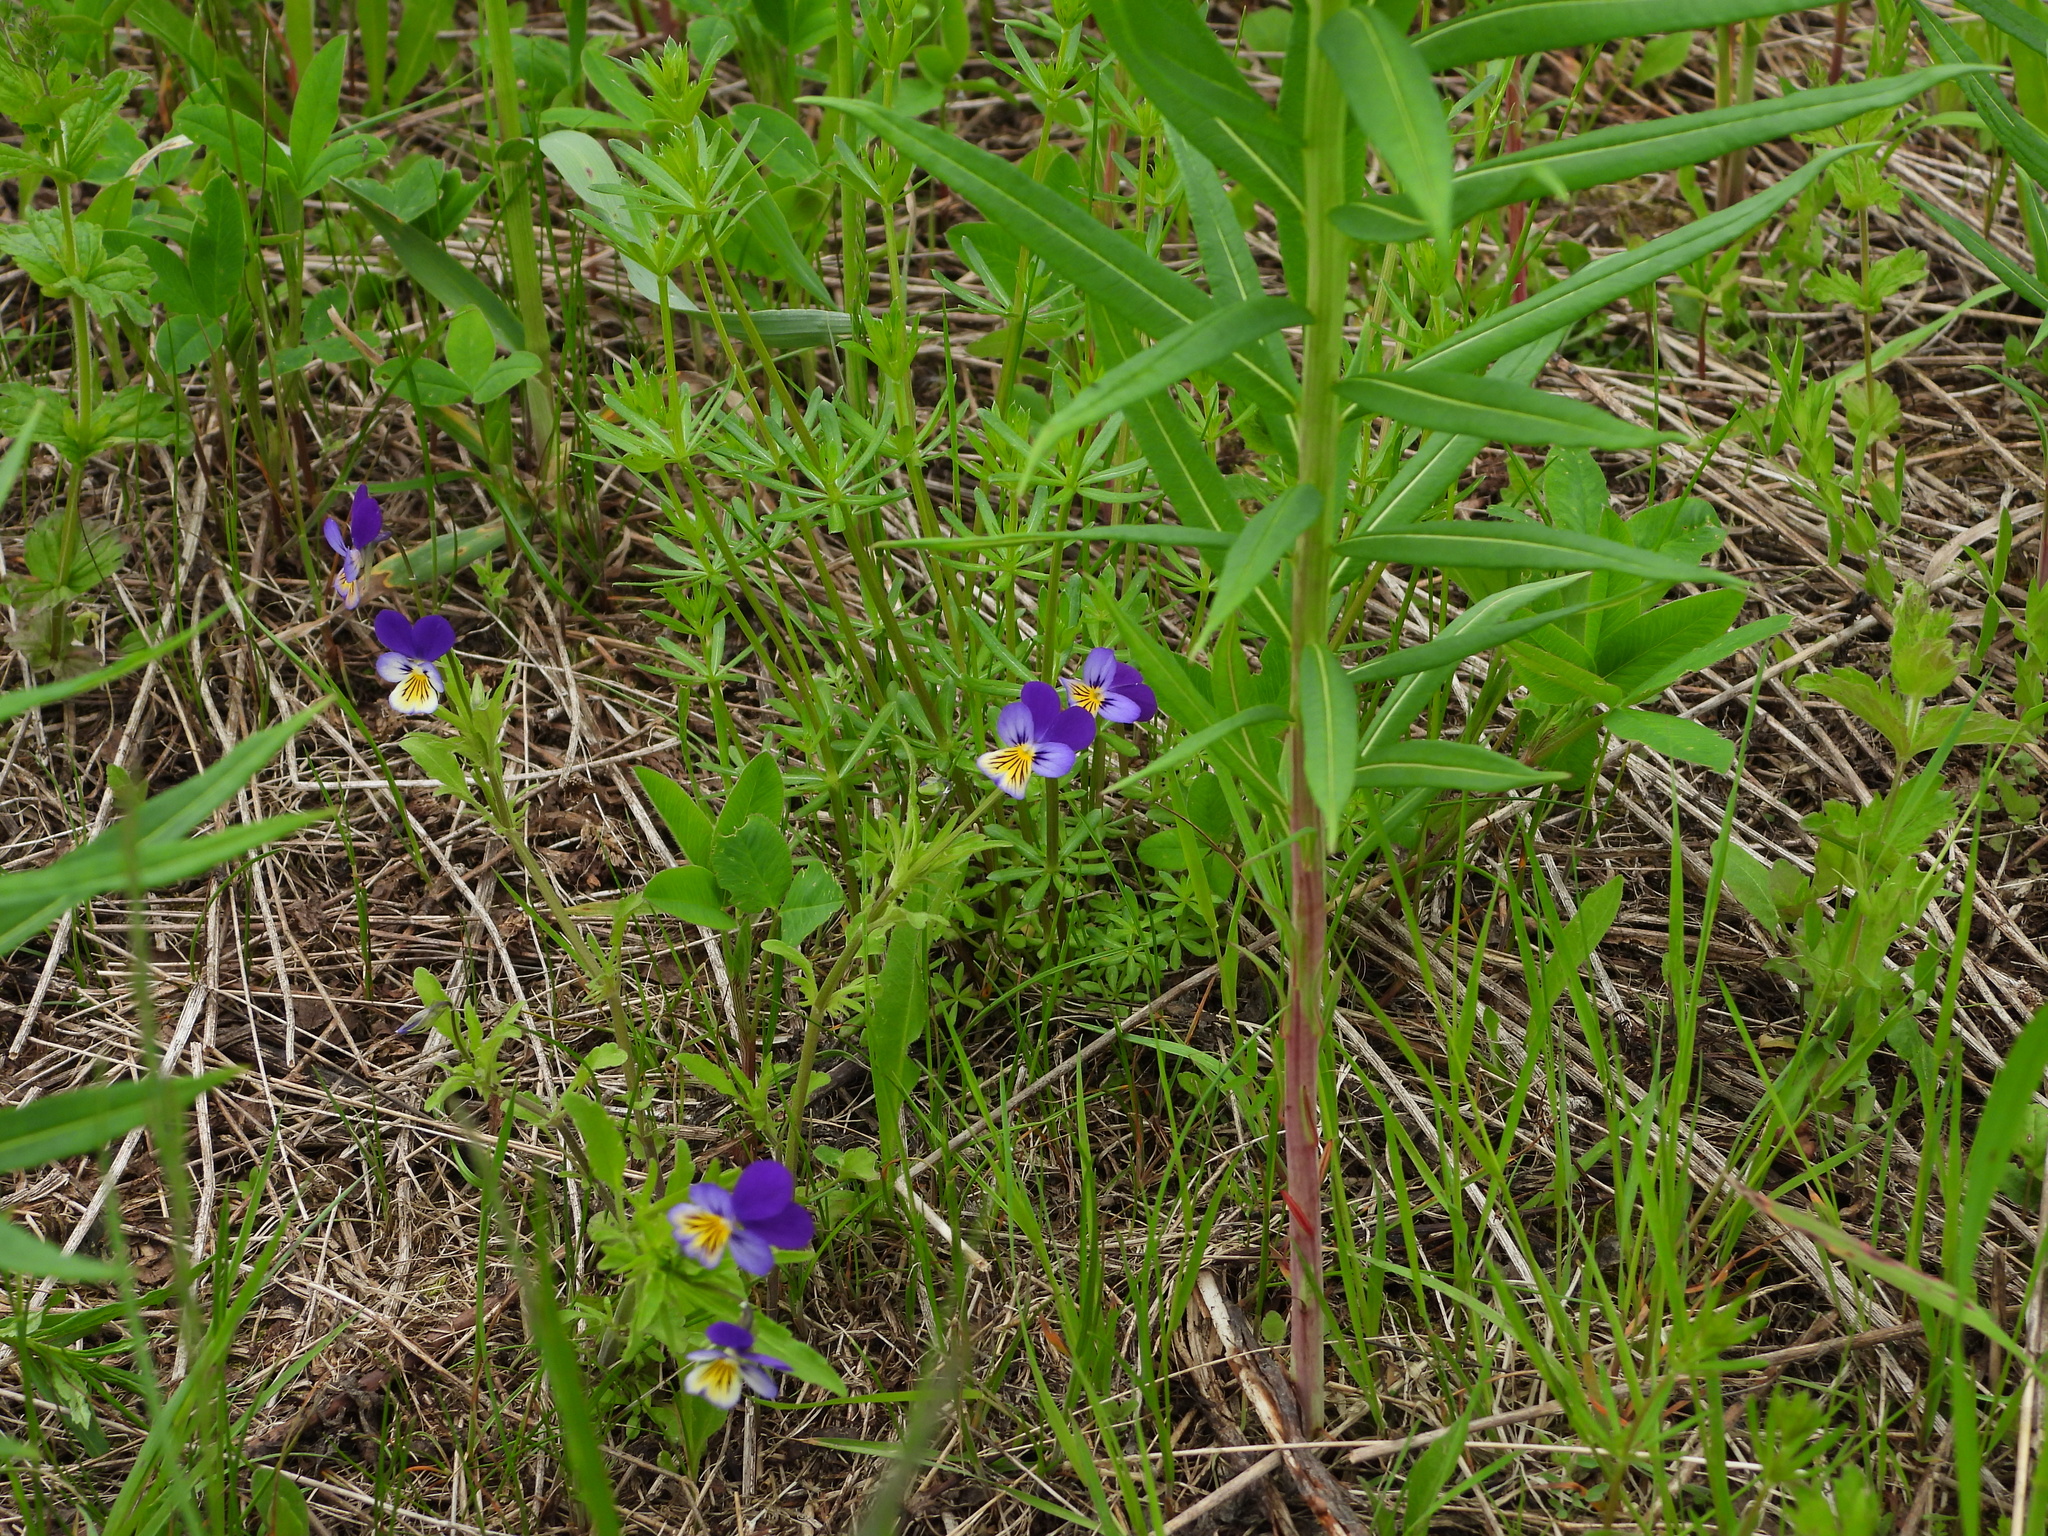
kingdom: Plantae
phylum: Tracheophyta
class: Magnoliopsida
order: Malpighiales
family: Violaceae
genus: Viola
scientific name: Viola tricolor
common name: Pansy
